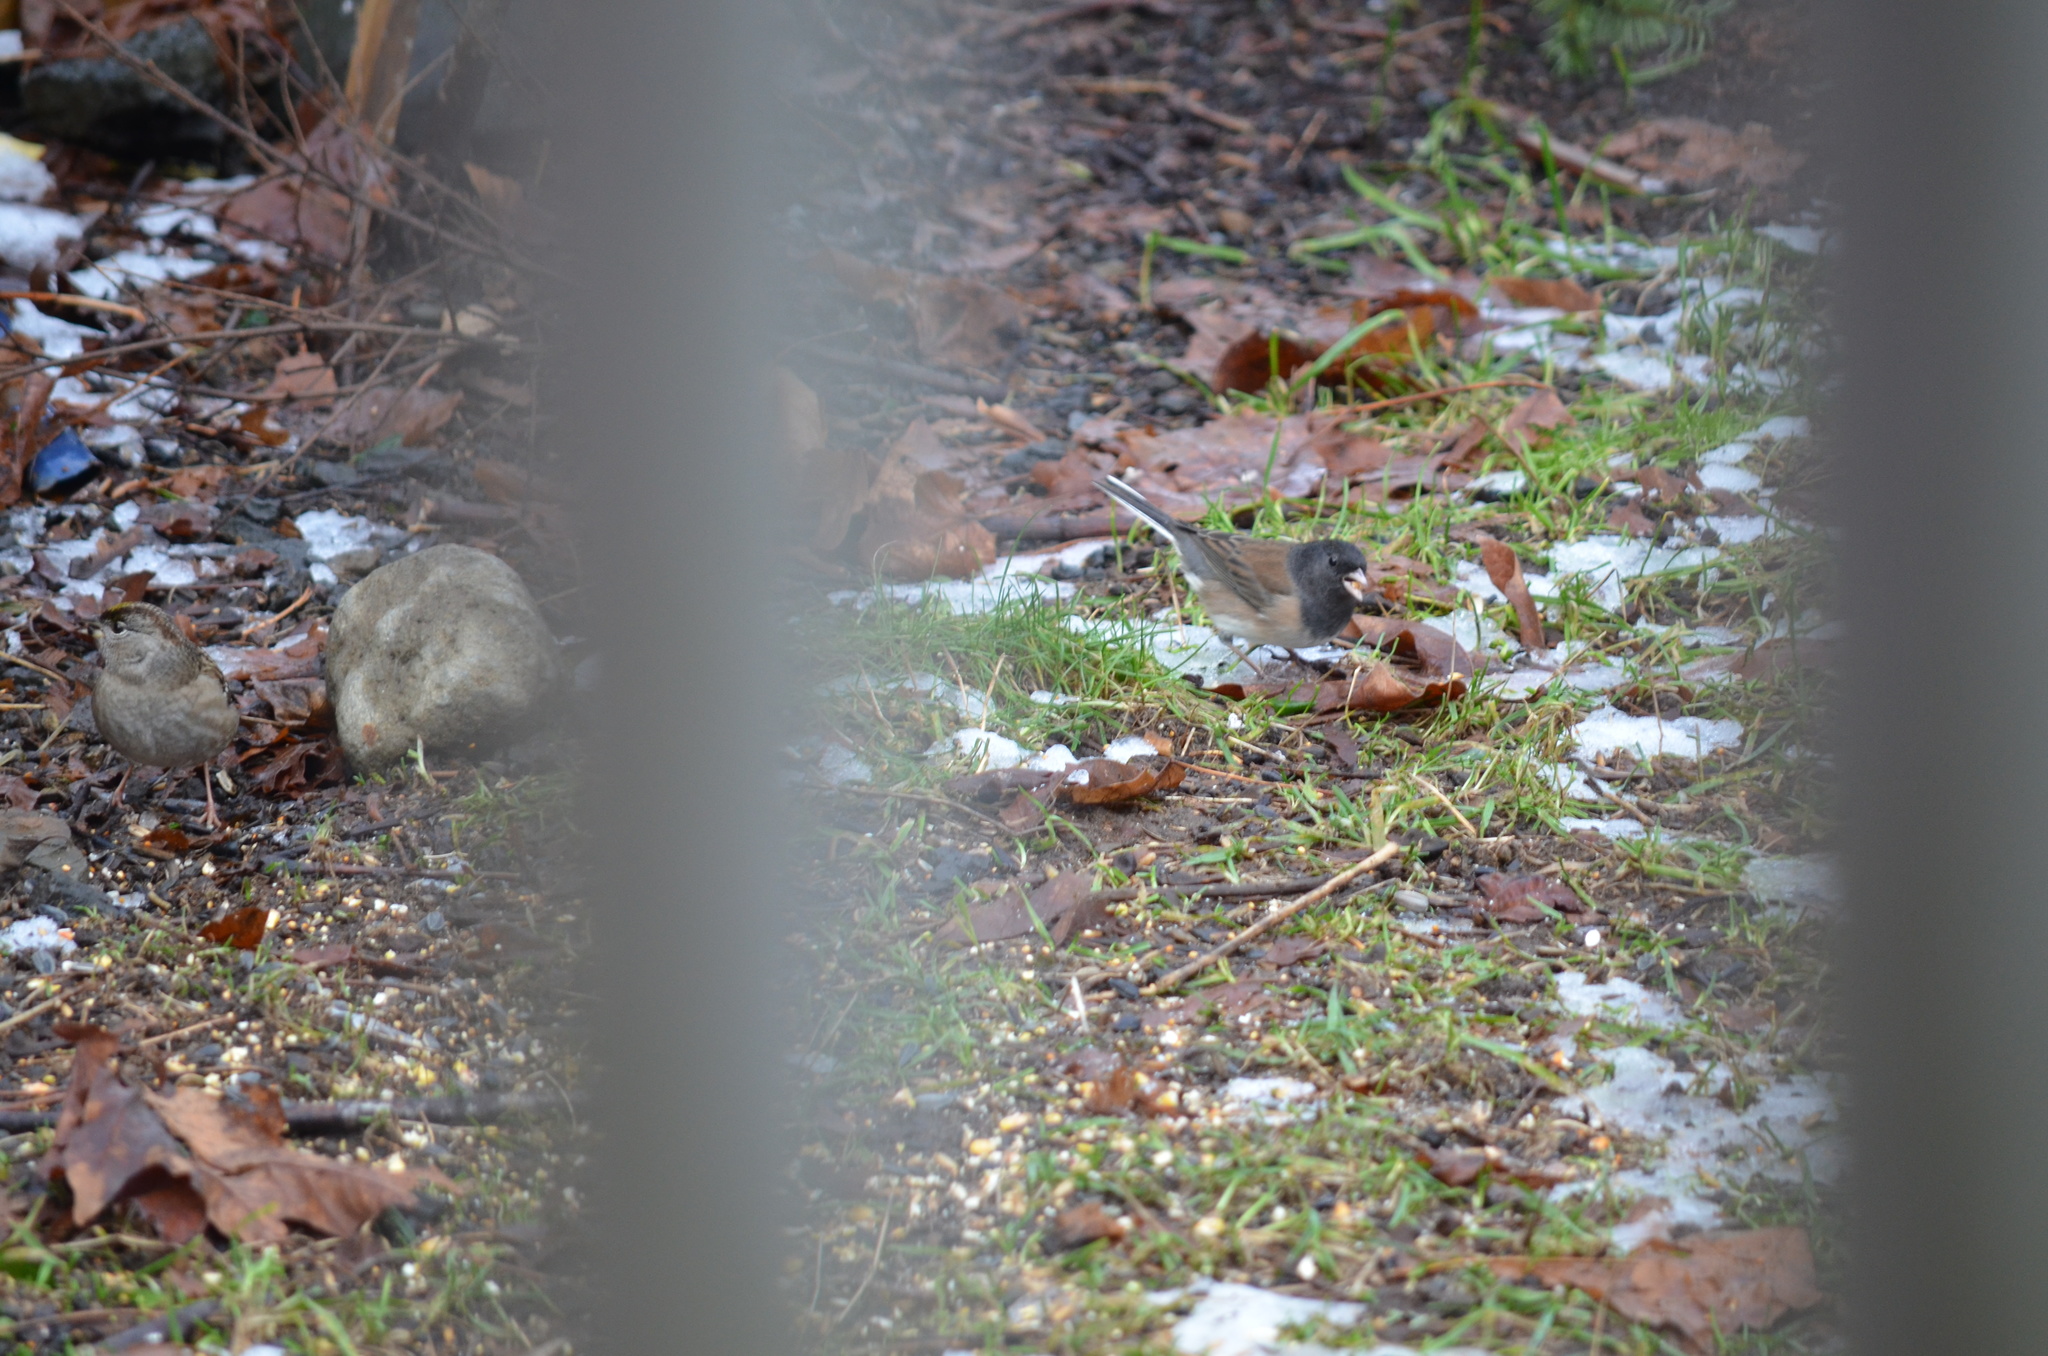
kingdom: Animalia
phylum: Chordata
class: Aves
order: Passeriformes
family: Passerellidae
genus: Junco
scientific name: Junco hyemalis
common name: Dark-eyed junco
